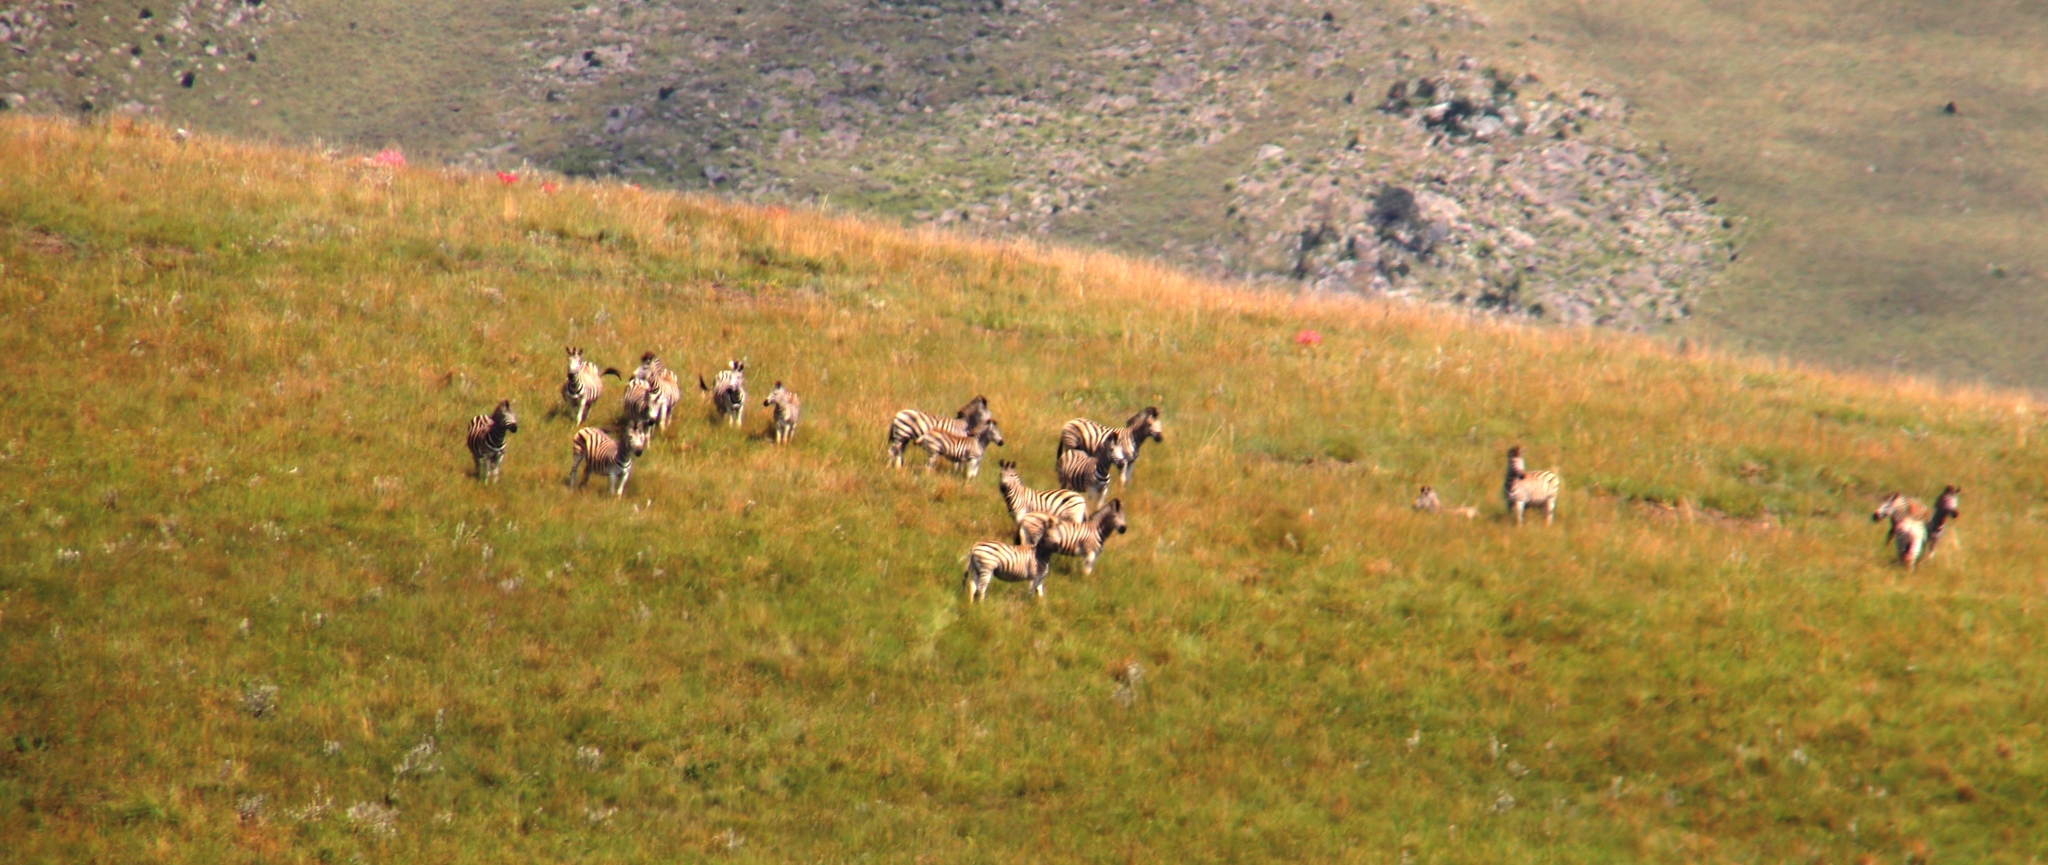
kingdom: Animalia
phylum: Chordata
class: Mammalia
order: Perissodactyla
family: Equidae
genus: Equus
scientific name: Equus quagga
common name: Plains zebra
